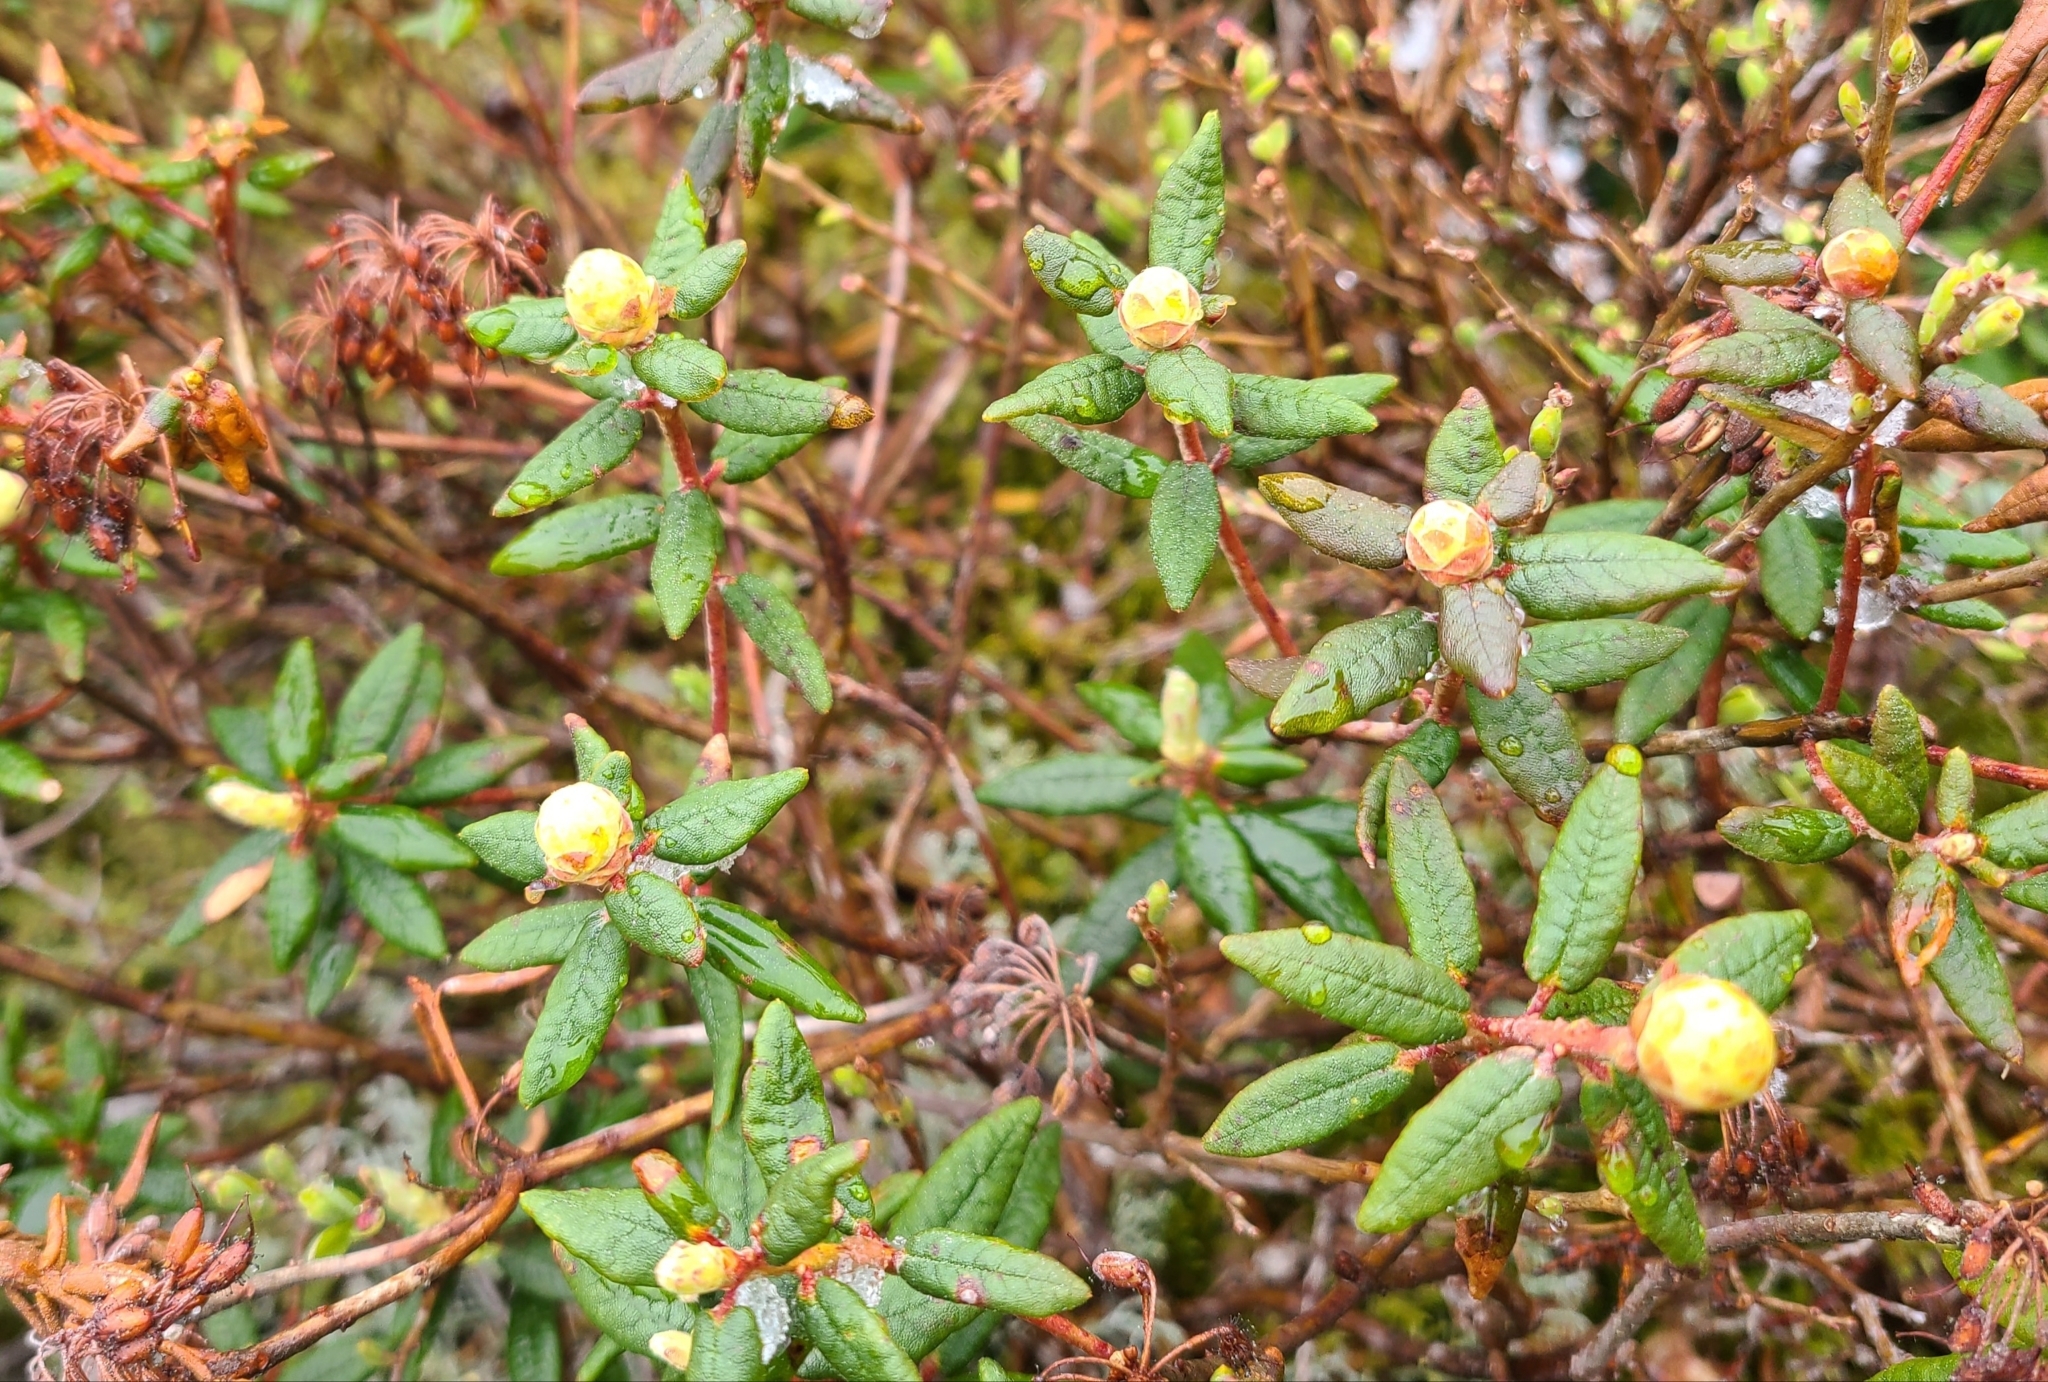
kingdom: Plantae
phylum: Tracheophyta
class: Magnoliopsida
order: Ericales
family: Ericaceae
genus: Rhododendron
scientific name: Rhododendron groenlandicum
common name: Bog labrador tea
